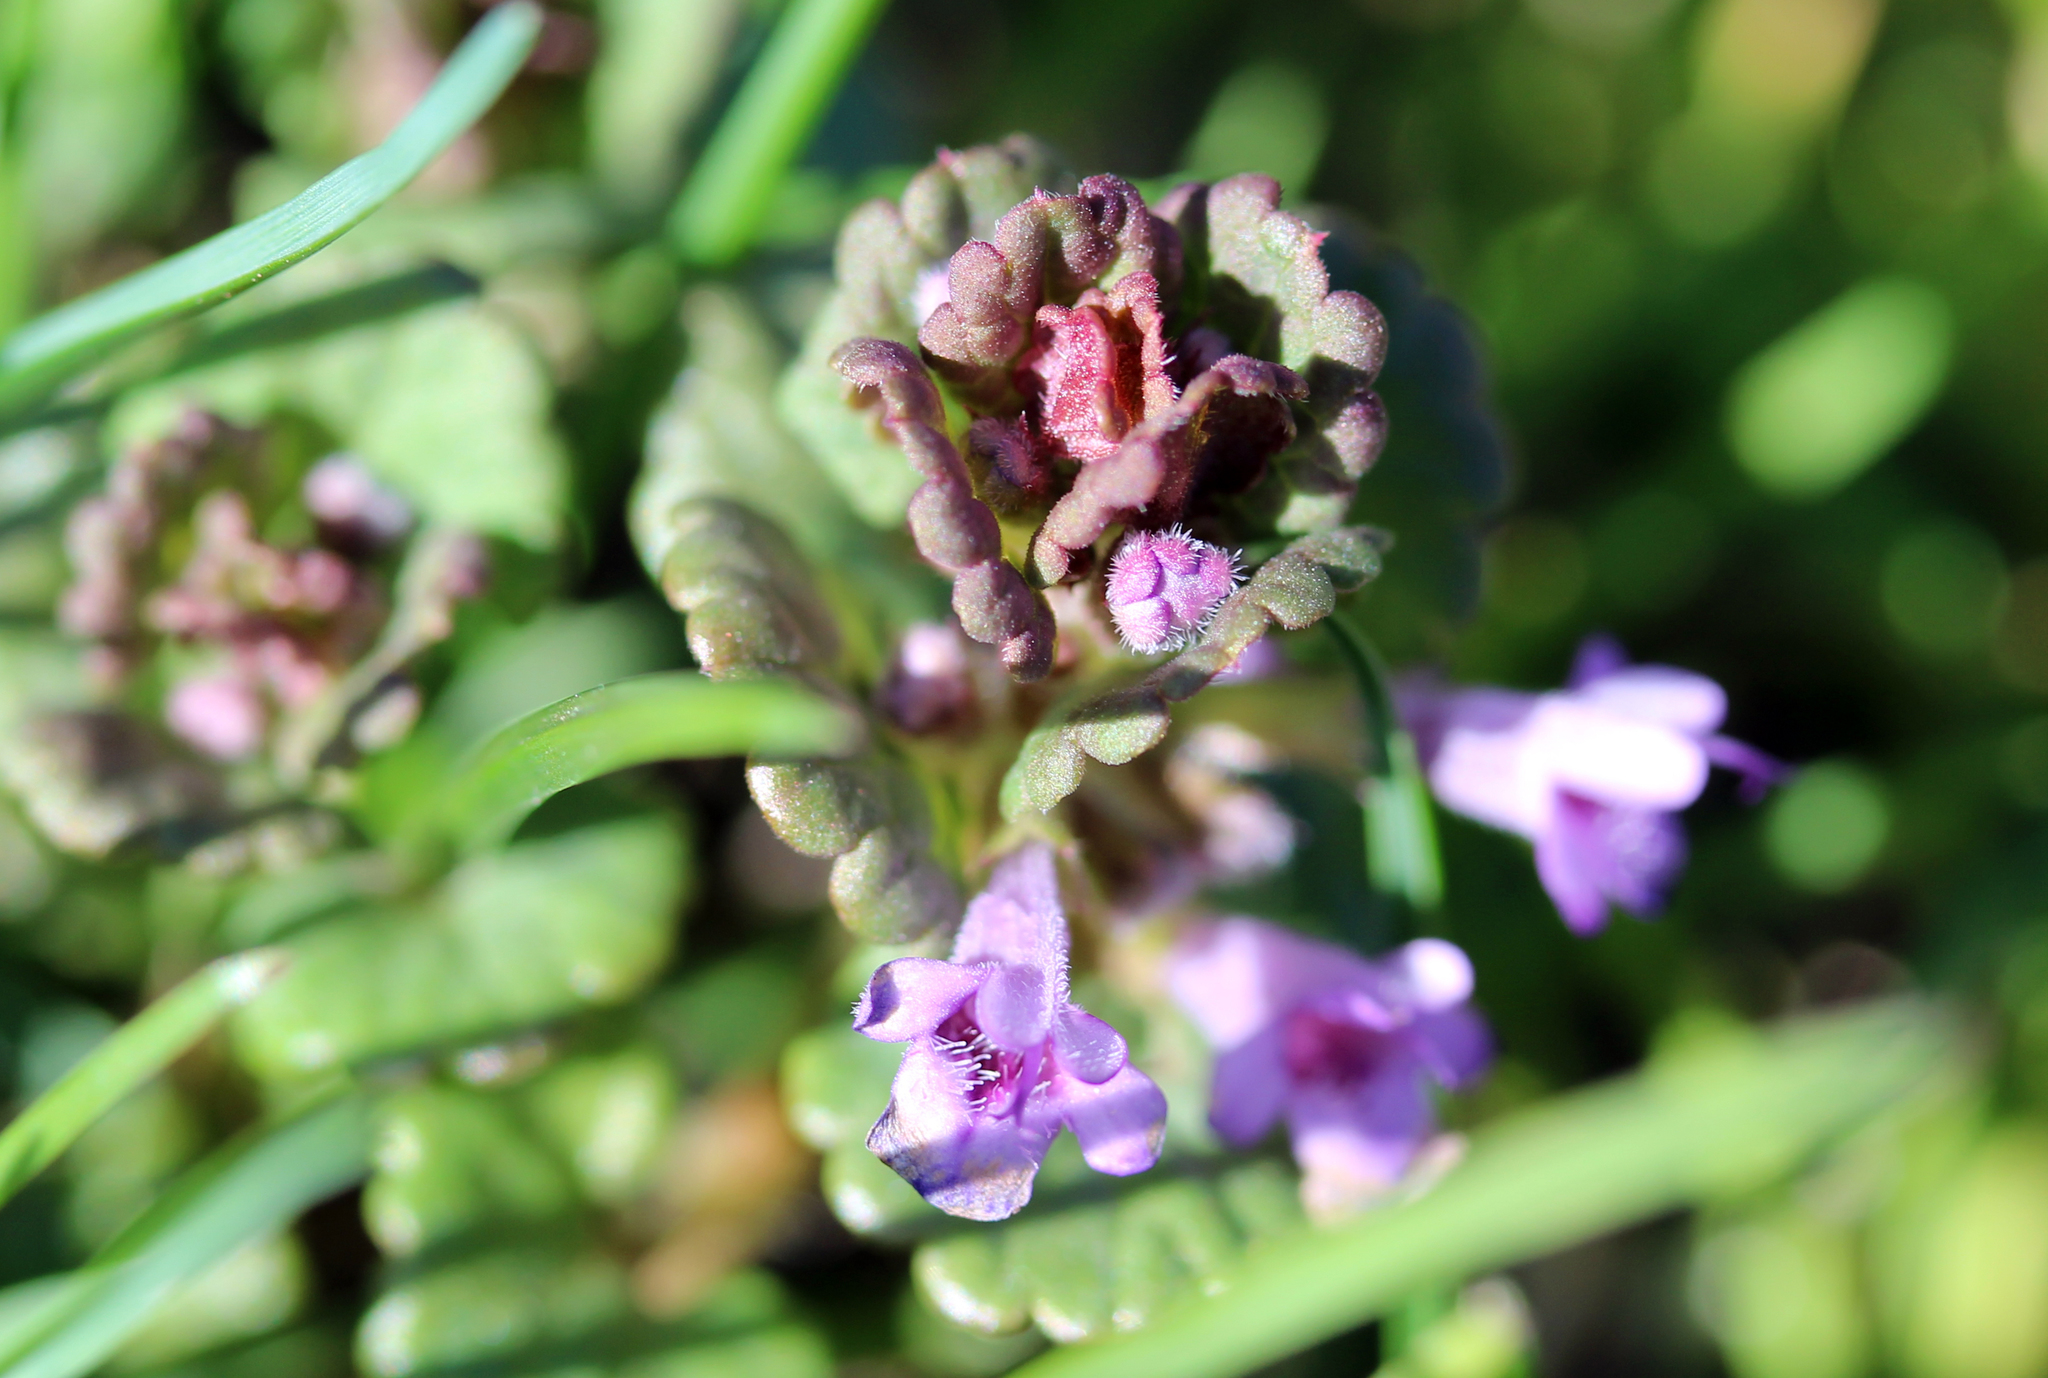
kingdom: Plantae
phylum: Tracheophyta
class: Magnoliopsida
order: Lamiales
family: Lamiaceae
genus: Glechoma
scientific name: Glechoma hederacea
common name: Ground ivy
